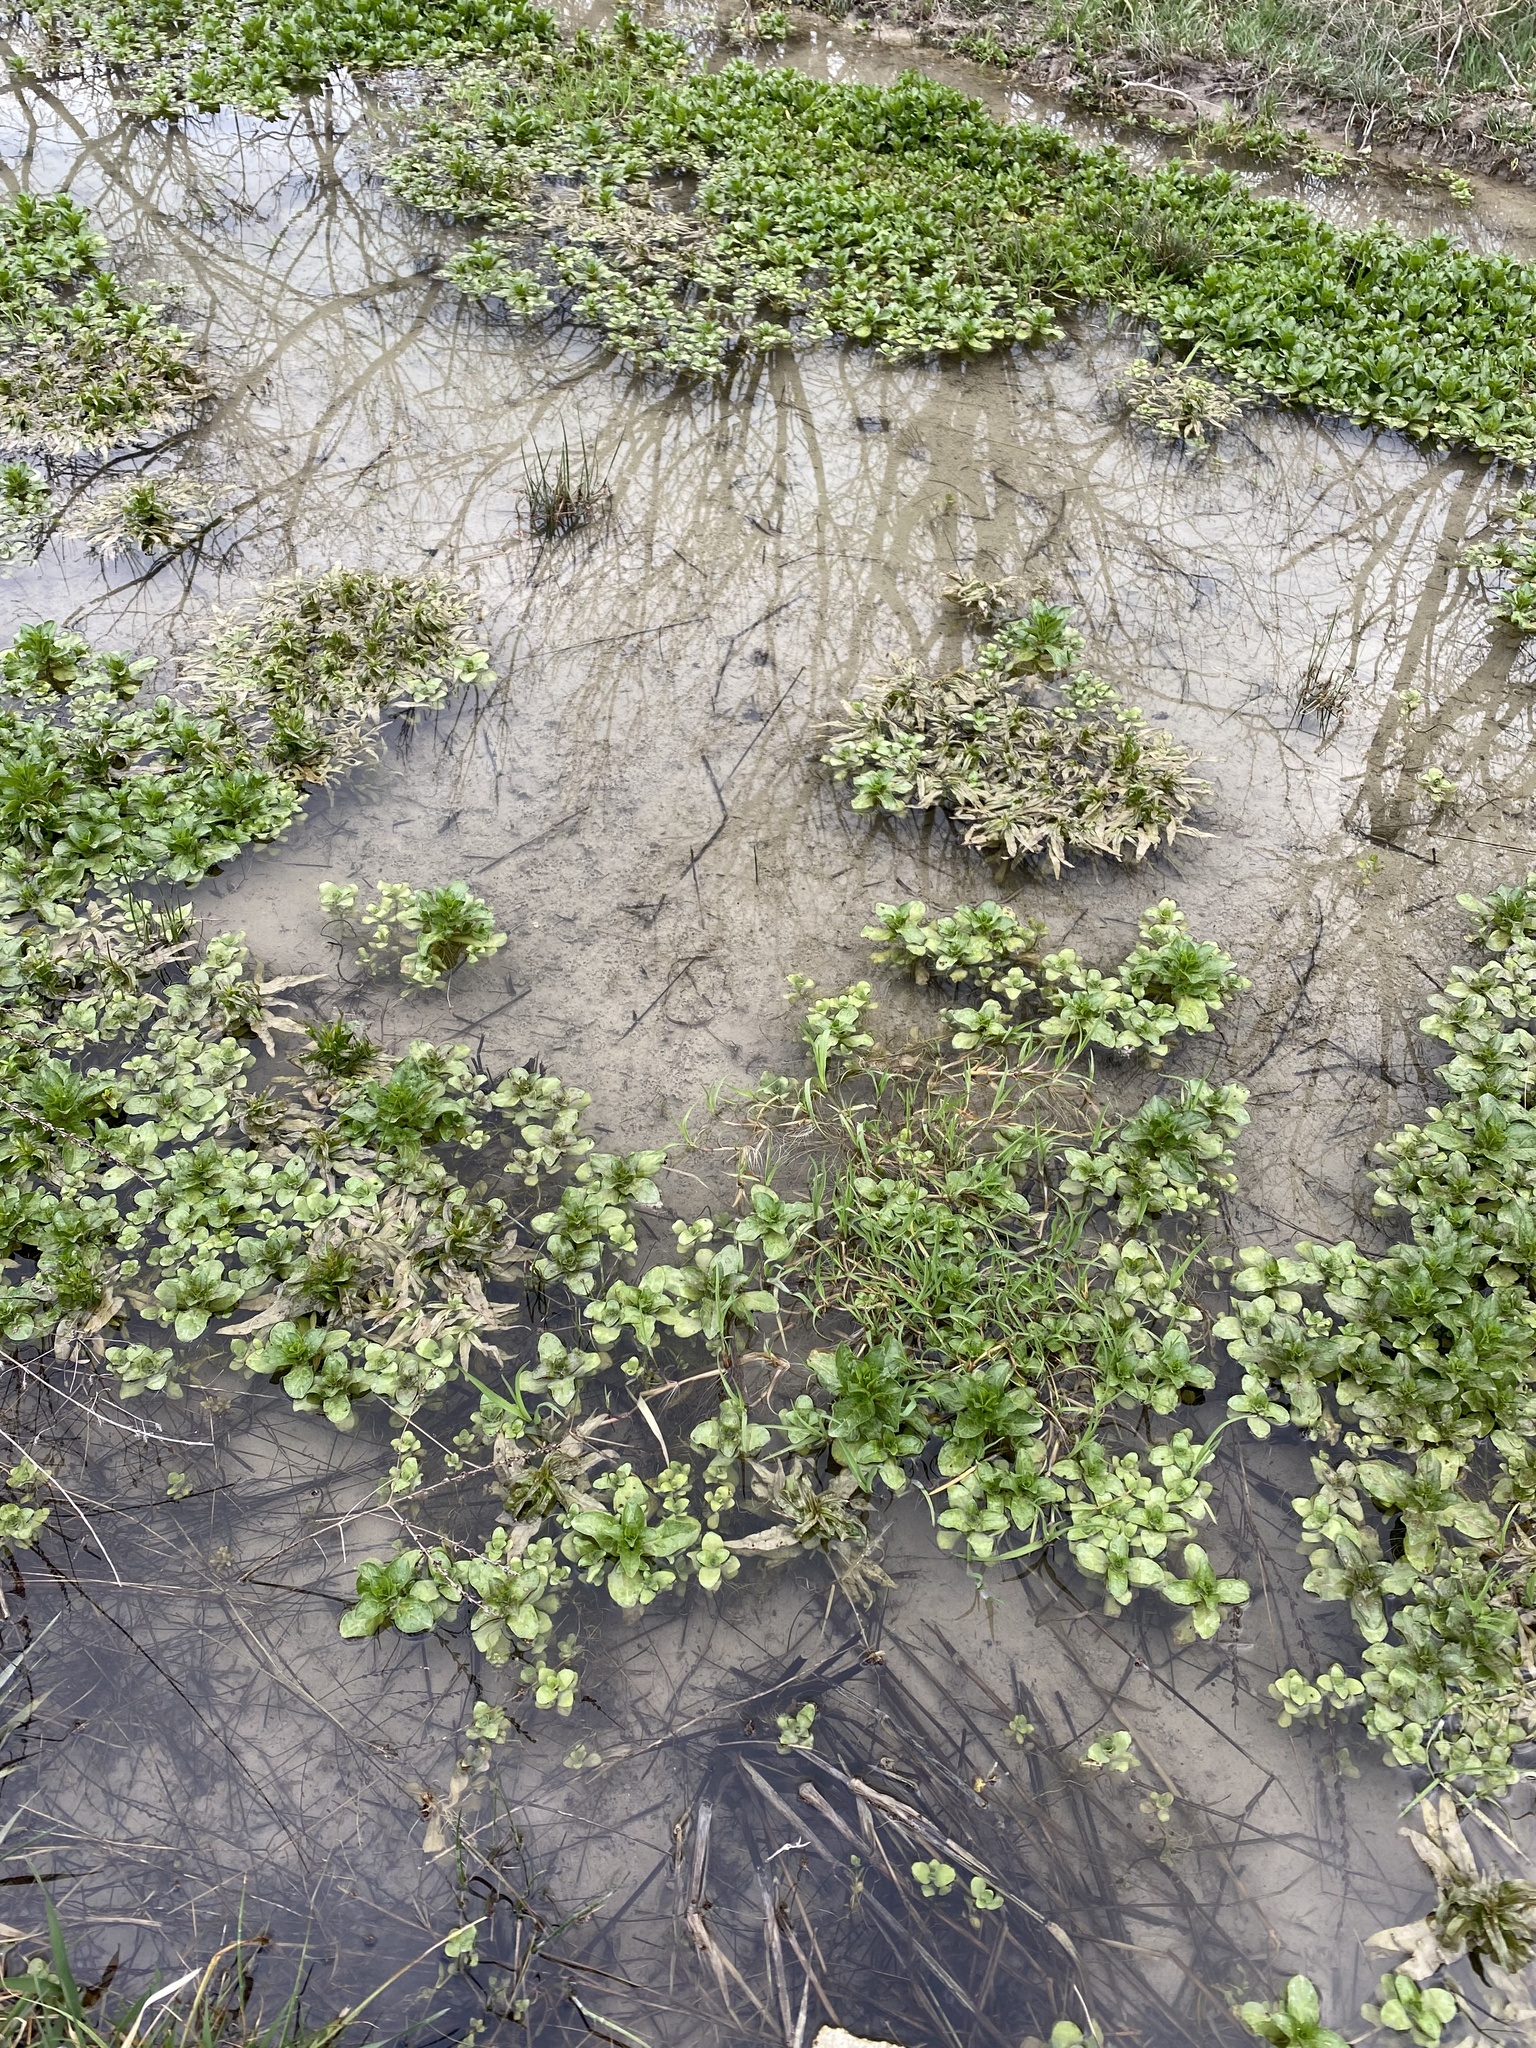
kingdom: Plantae
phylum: Tracheophyta
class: Magnoliopsida
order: Lamiales
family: Plantaginaceae
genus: Veronica
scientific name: Veronica beccabunga
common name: Brooklime
